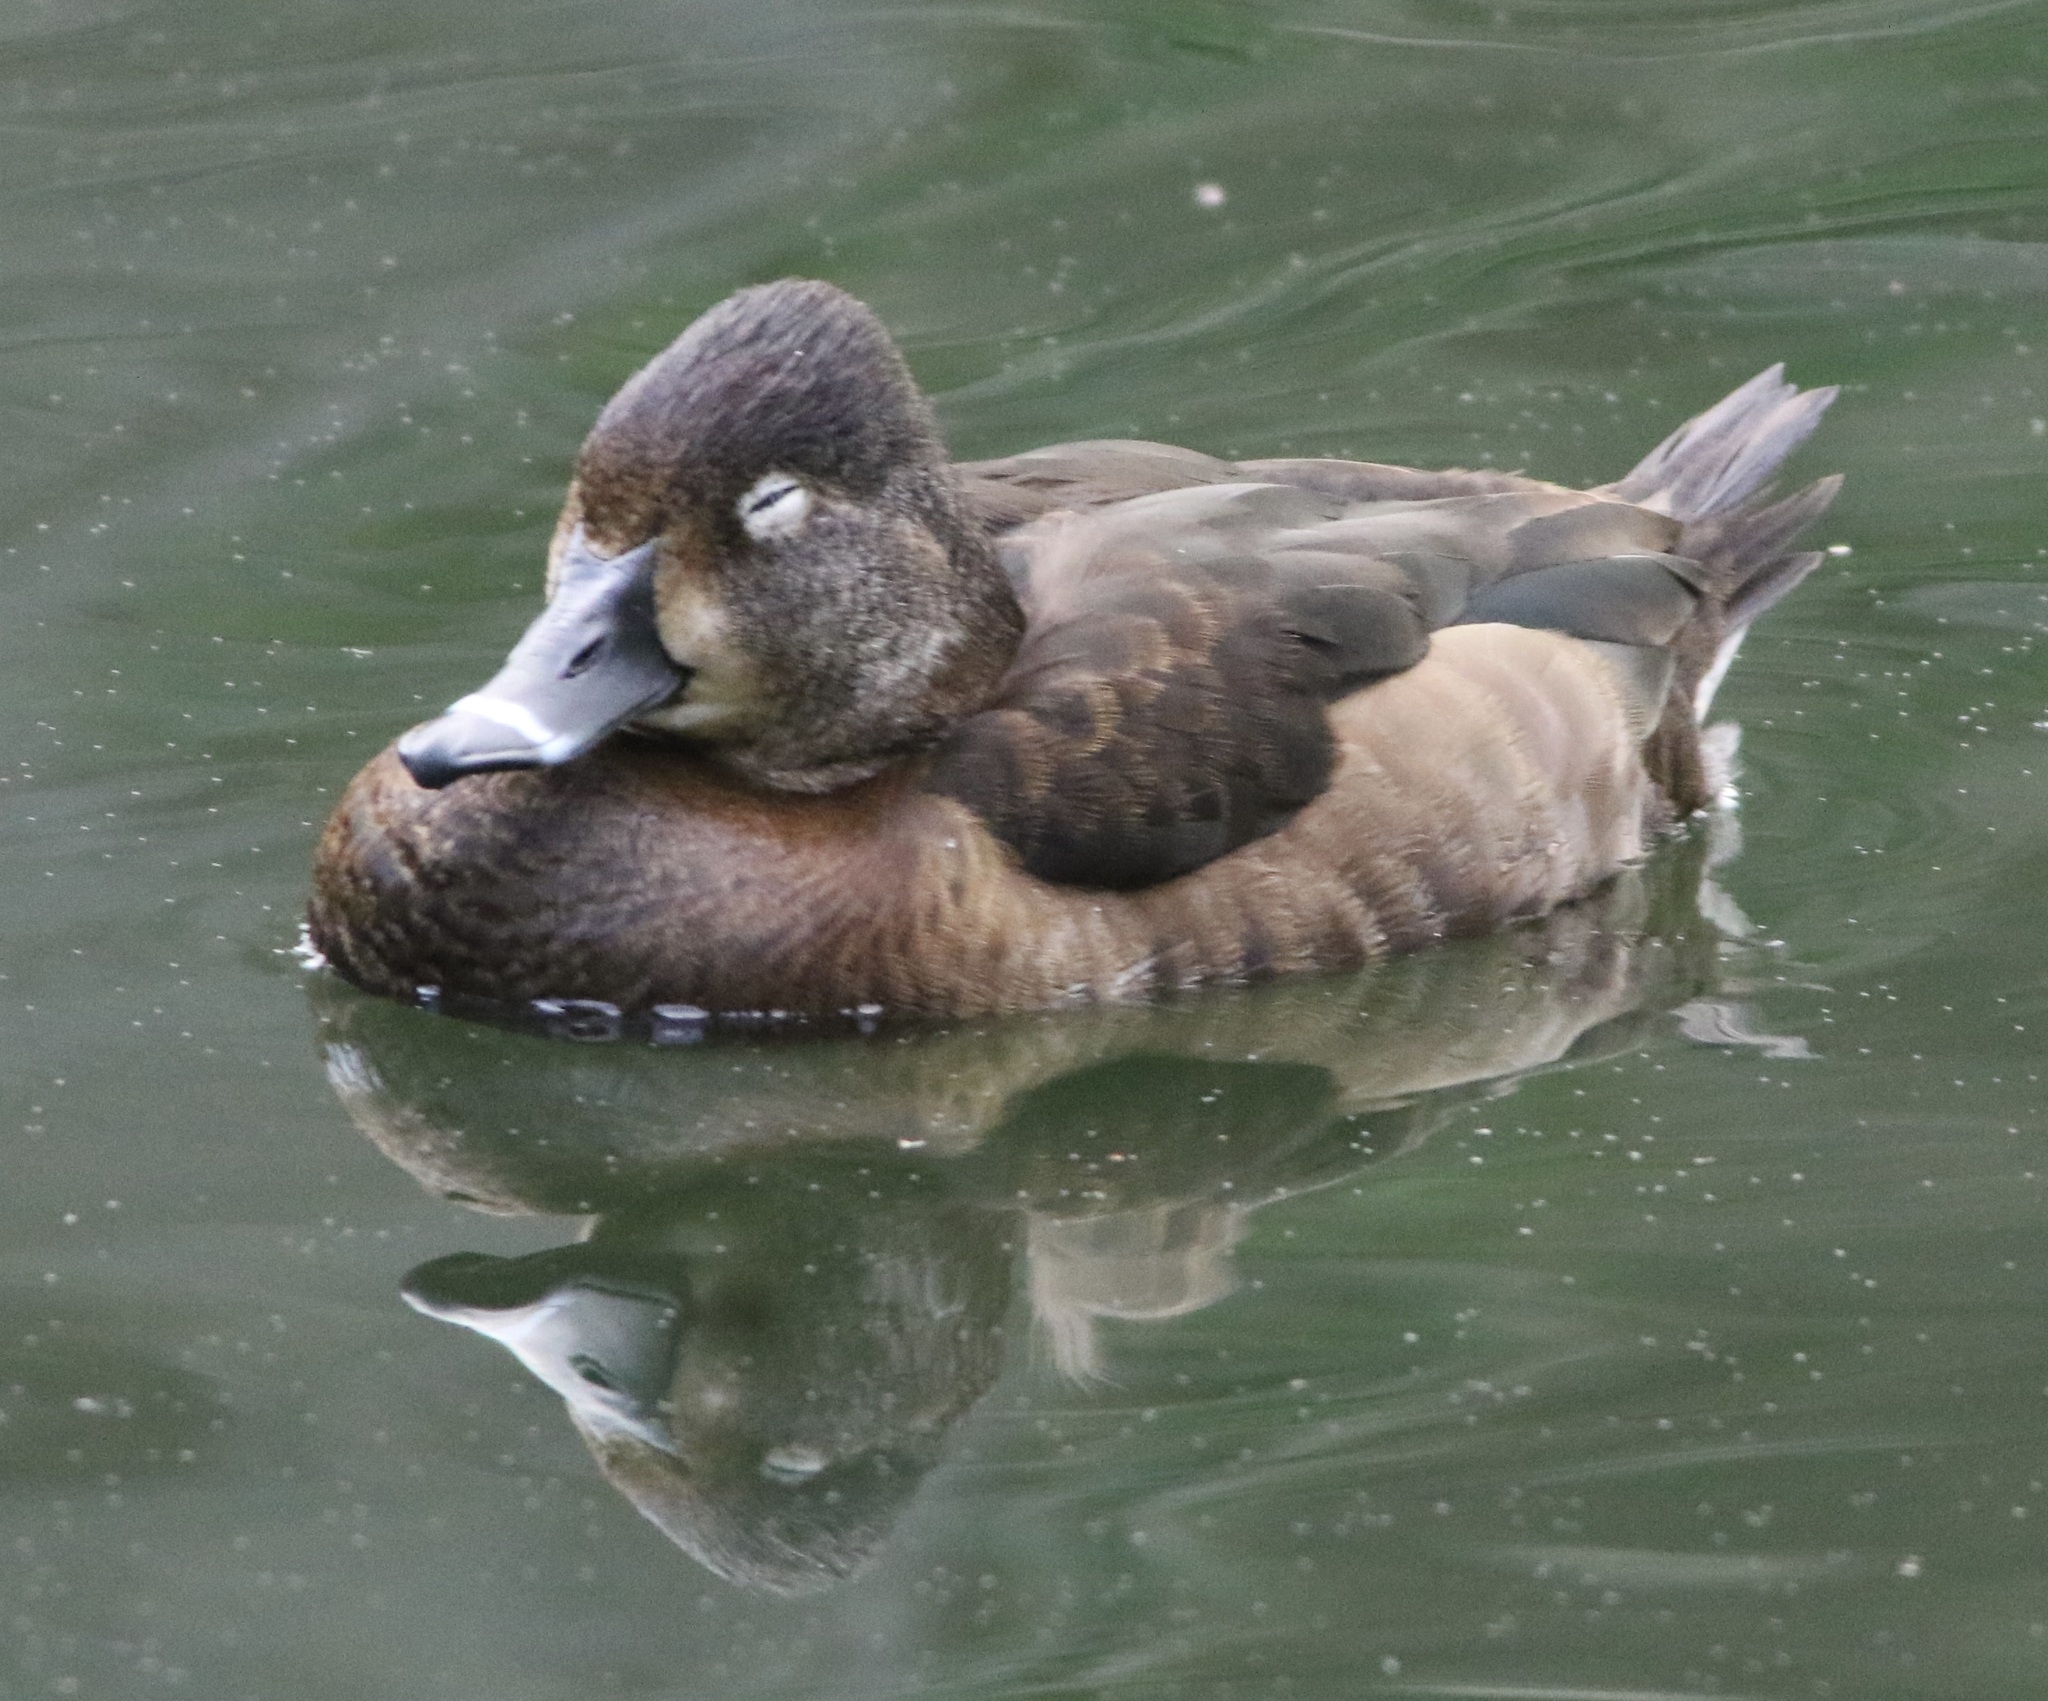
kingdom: Animalia
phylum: Chordata
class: Aves
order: Anseriformes
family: Anatidae
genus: Aythya
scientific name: Aythya collaris
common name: Ring-necked duck
